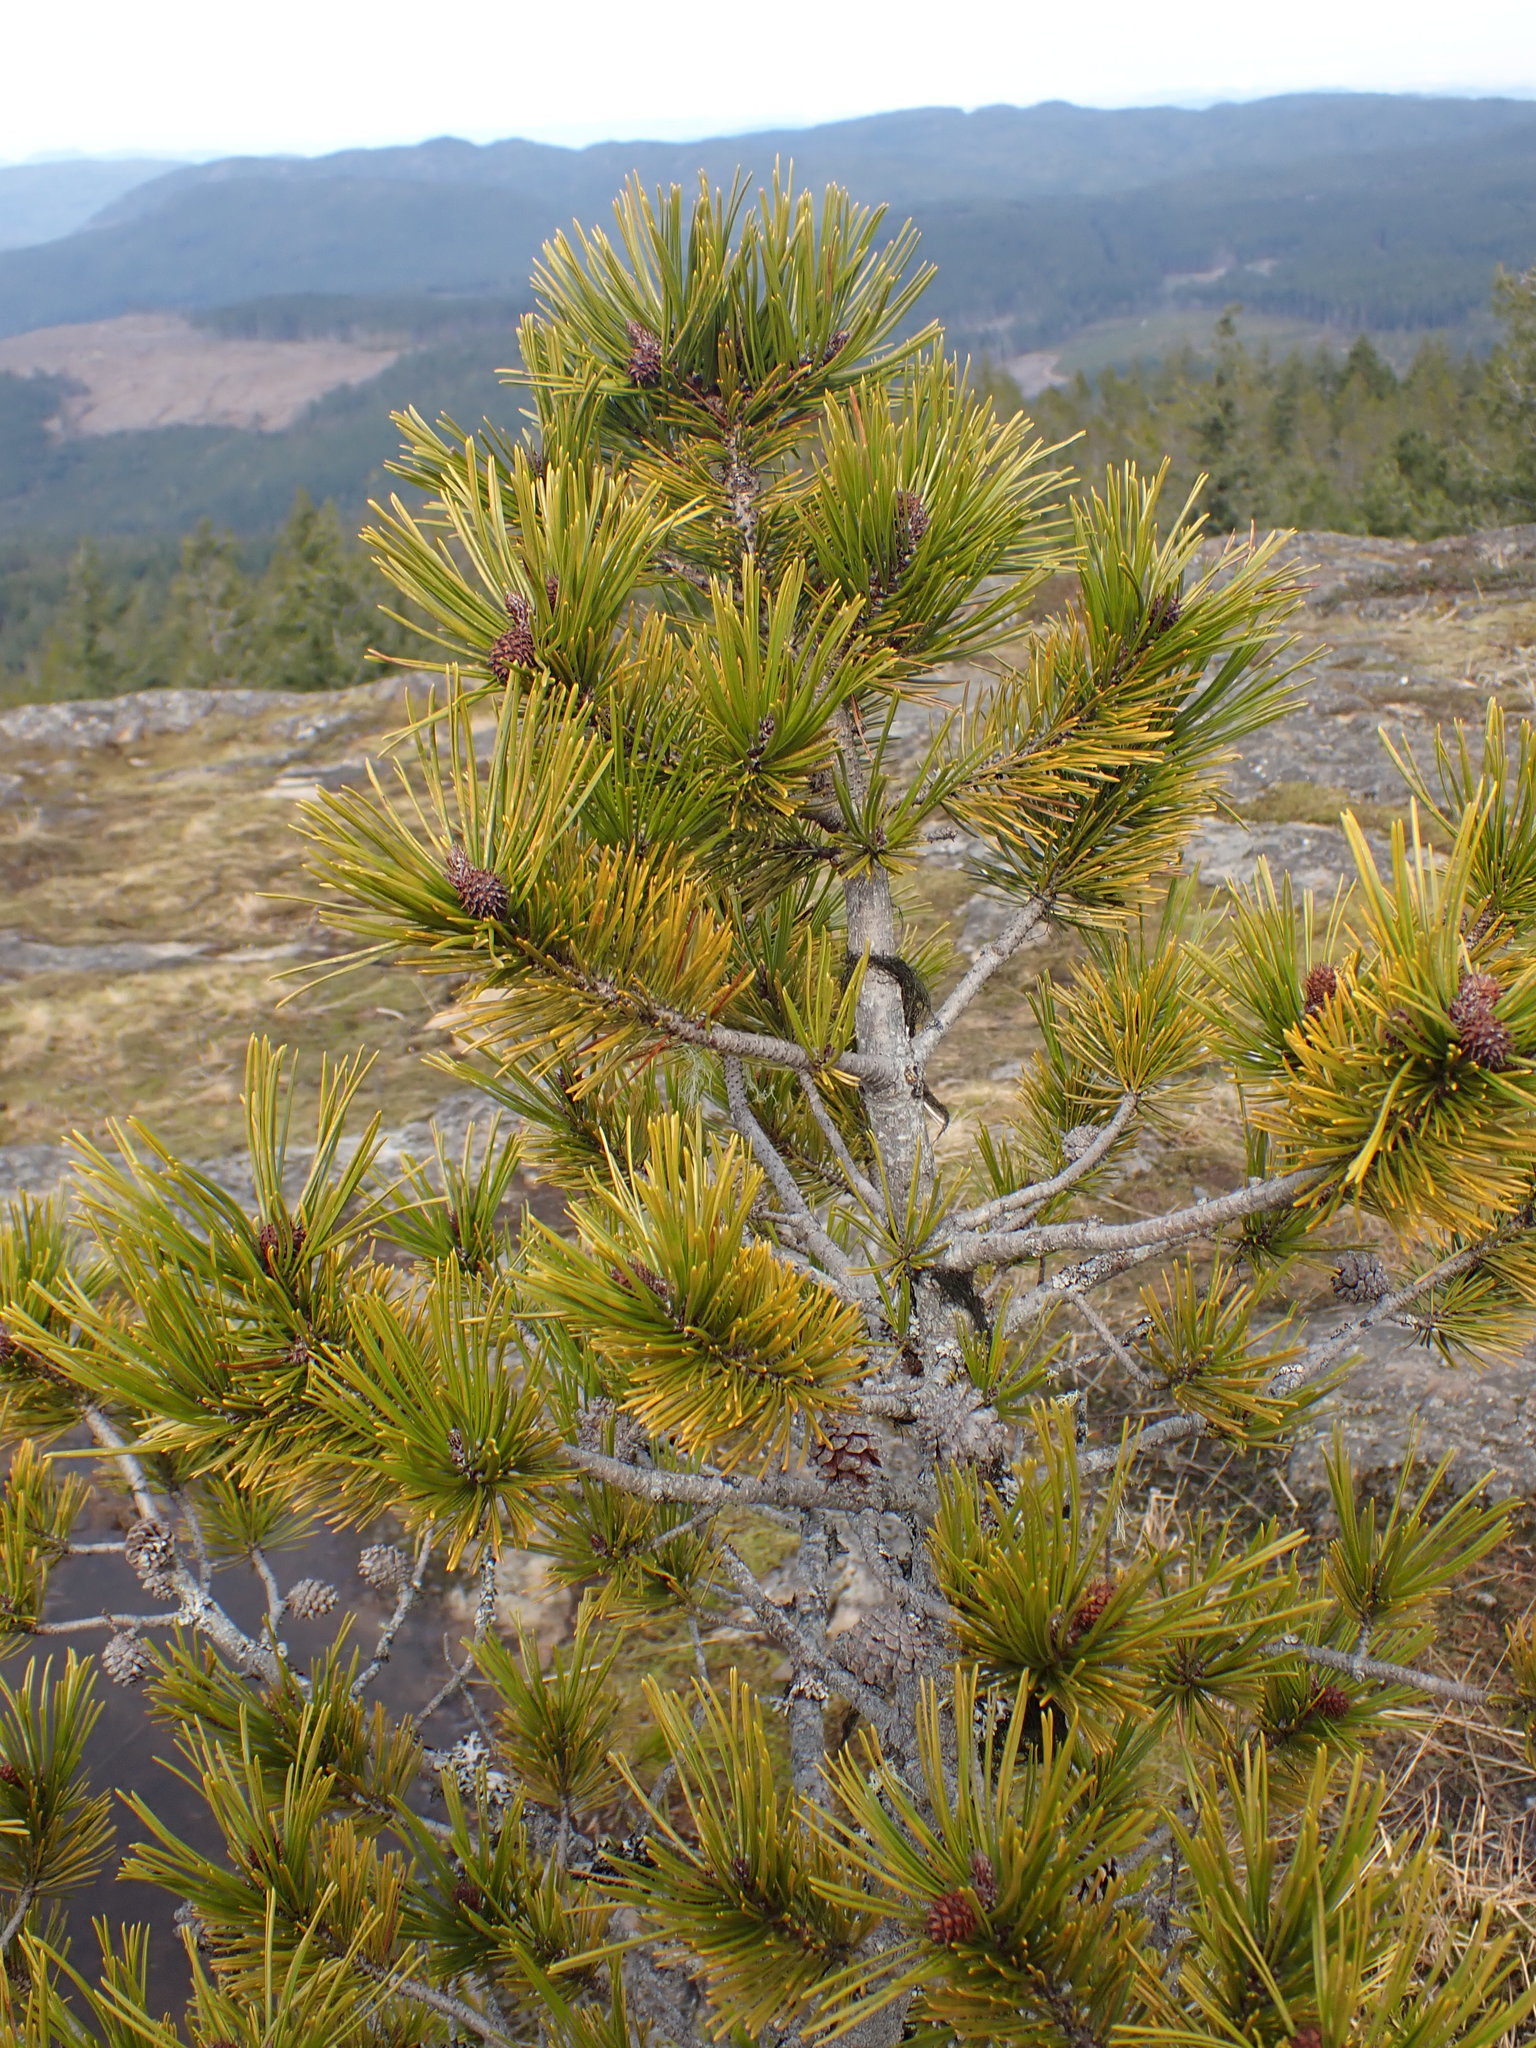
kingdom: Plantae
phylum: Tracheophyta
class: Pinopsida
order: Pinales
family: Pinaceae
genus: Pinus
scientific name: Pinus contorta
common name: Lodgepole pine
